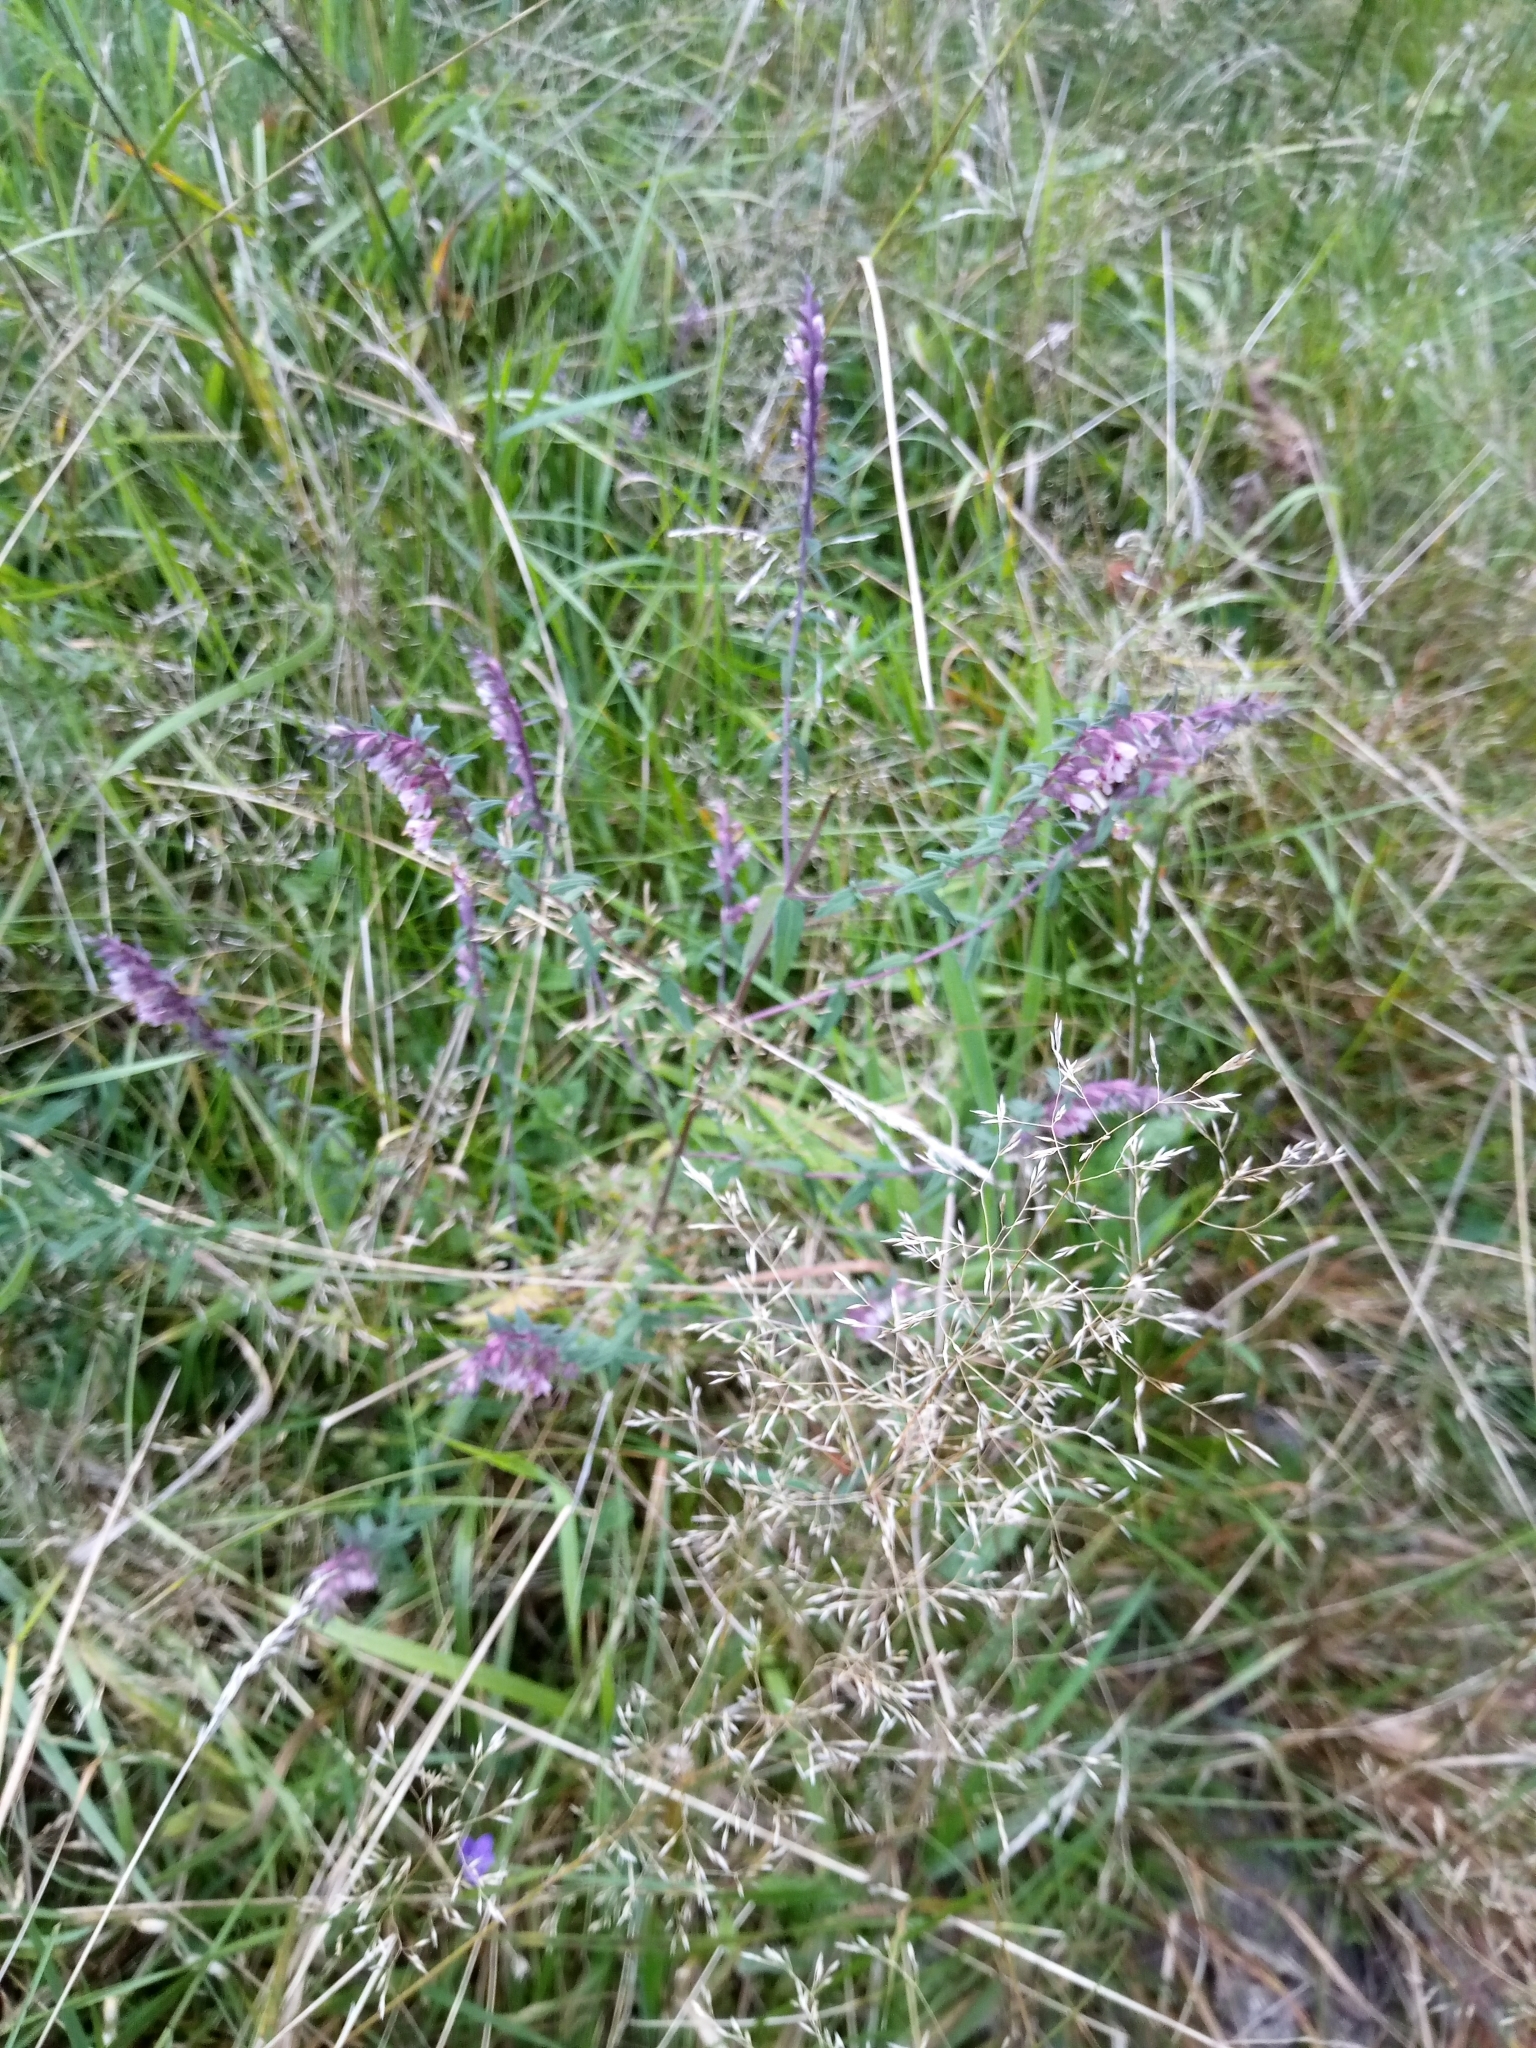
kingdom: Plantae
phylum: Tracheophyta
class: Magnoliopsida
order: Lamiales
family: Orobanchaceae
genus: Odontites
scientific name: Odontites vulgaris
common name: Broomrape
